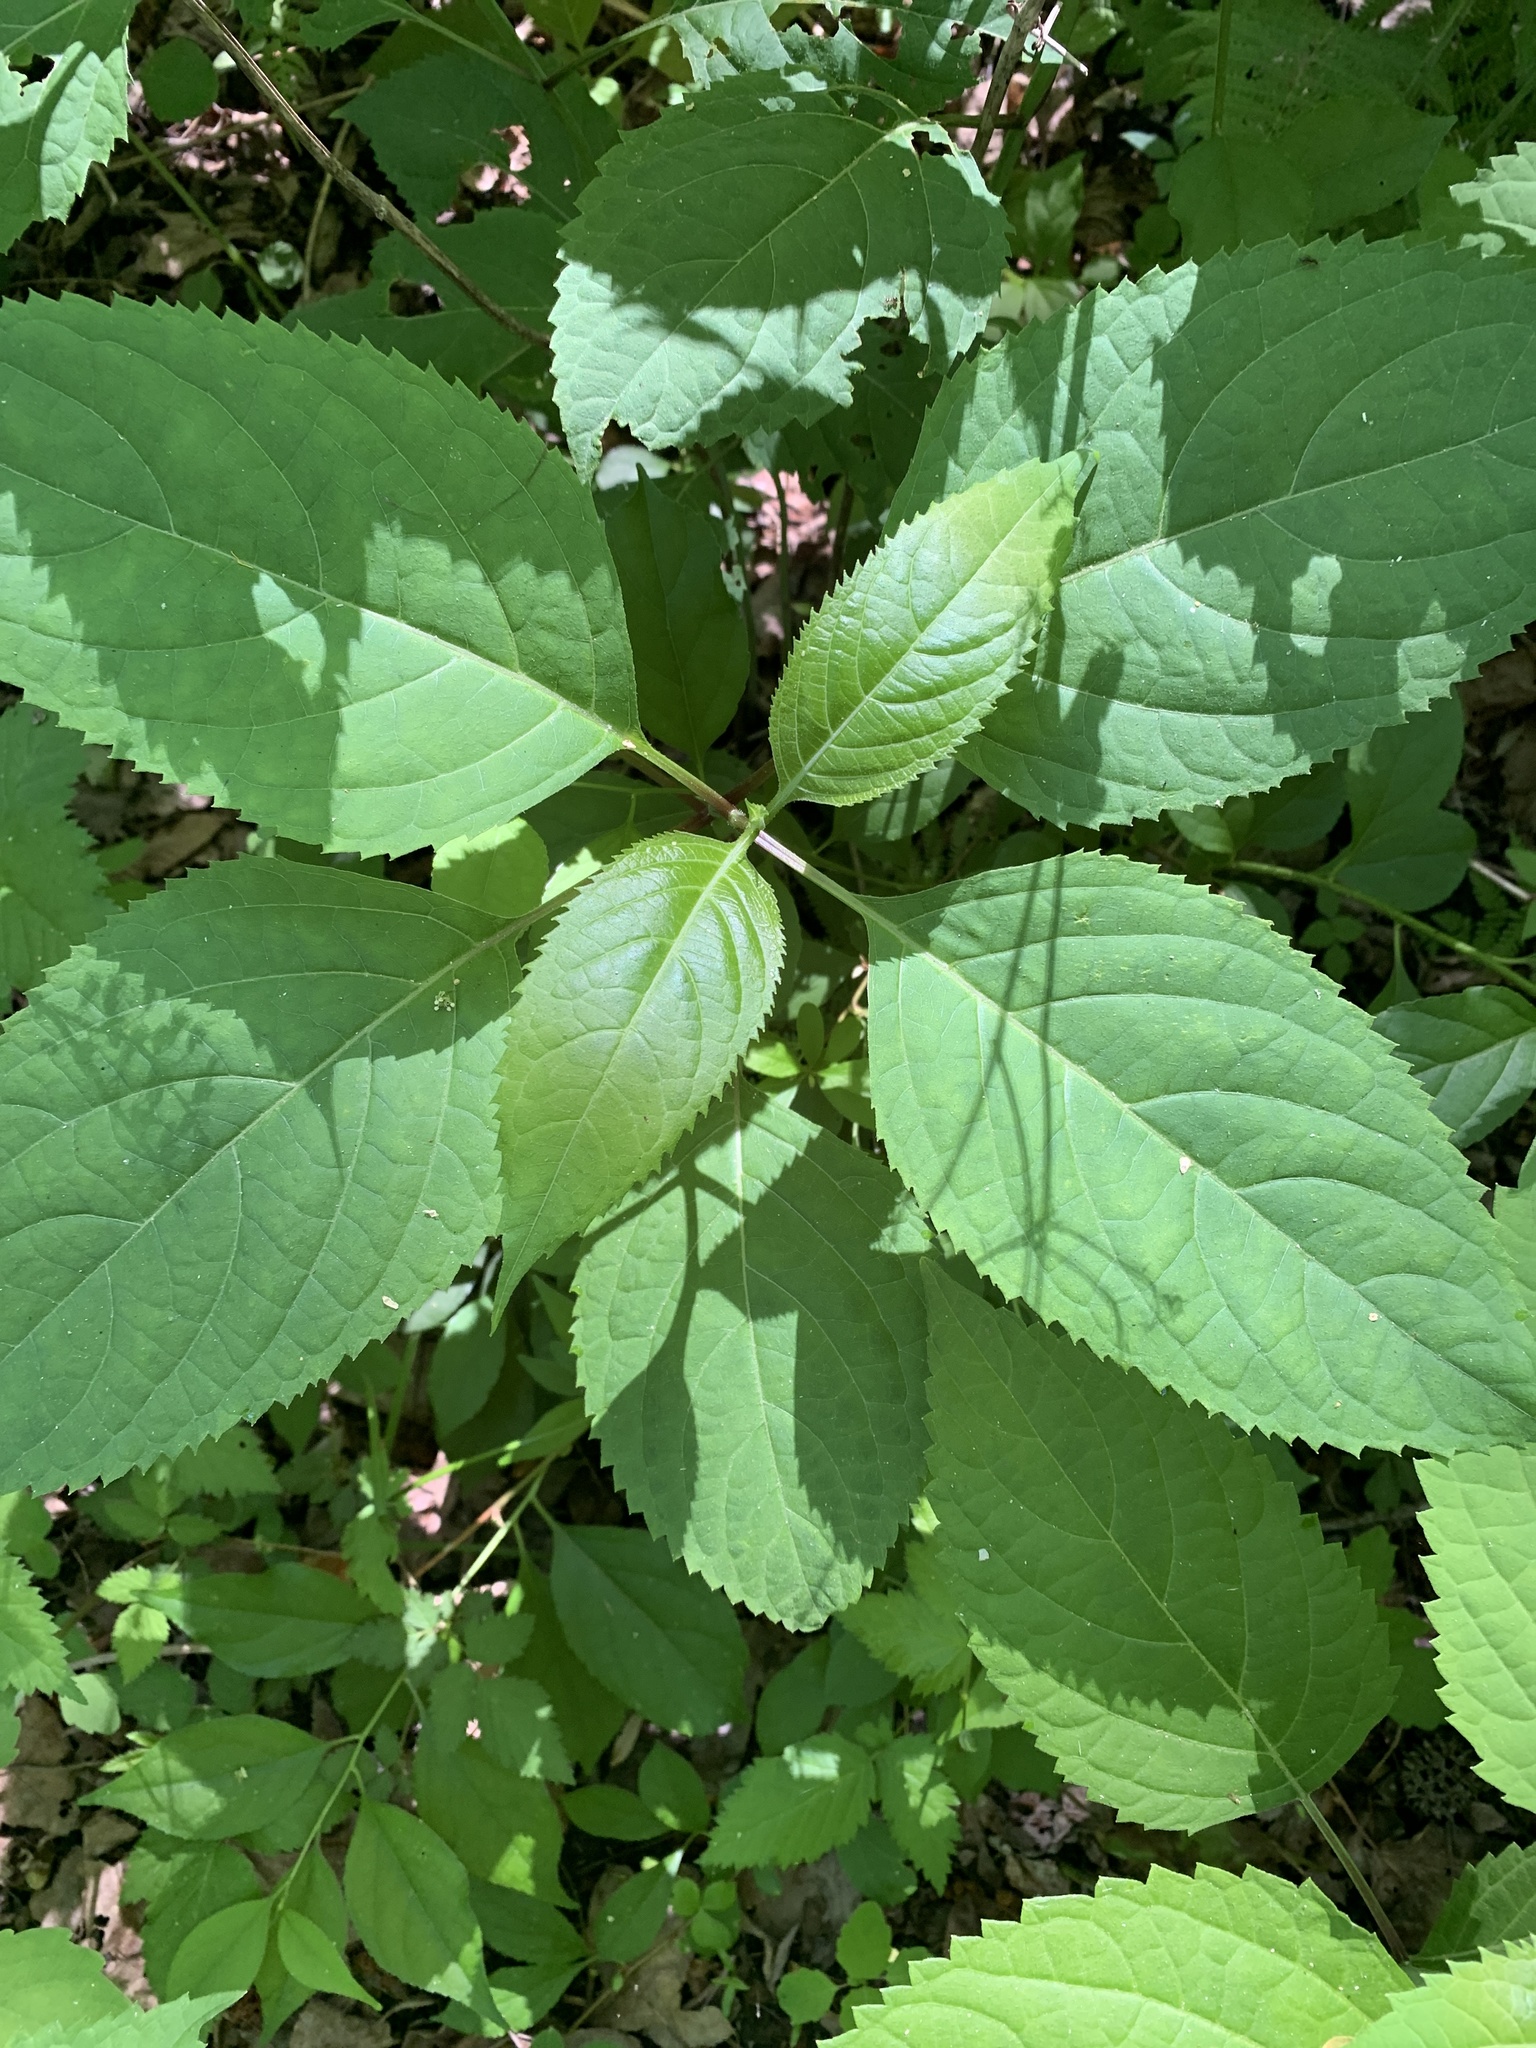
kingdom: Plantae
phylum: Tracheophyta
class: Magnoliopsida
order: Lamiales
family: Lamiaceae
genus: Collinsonia
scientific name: Collinsonia canadensis
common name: Northern horsebalm
